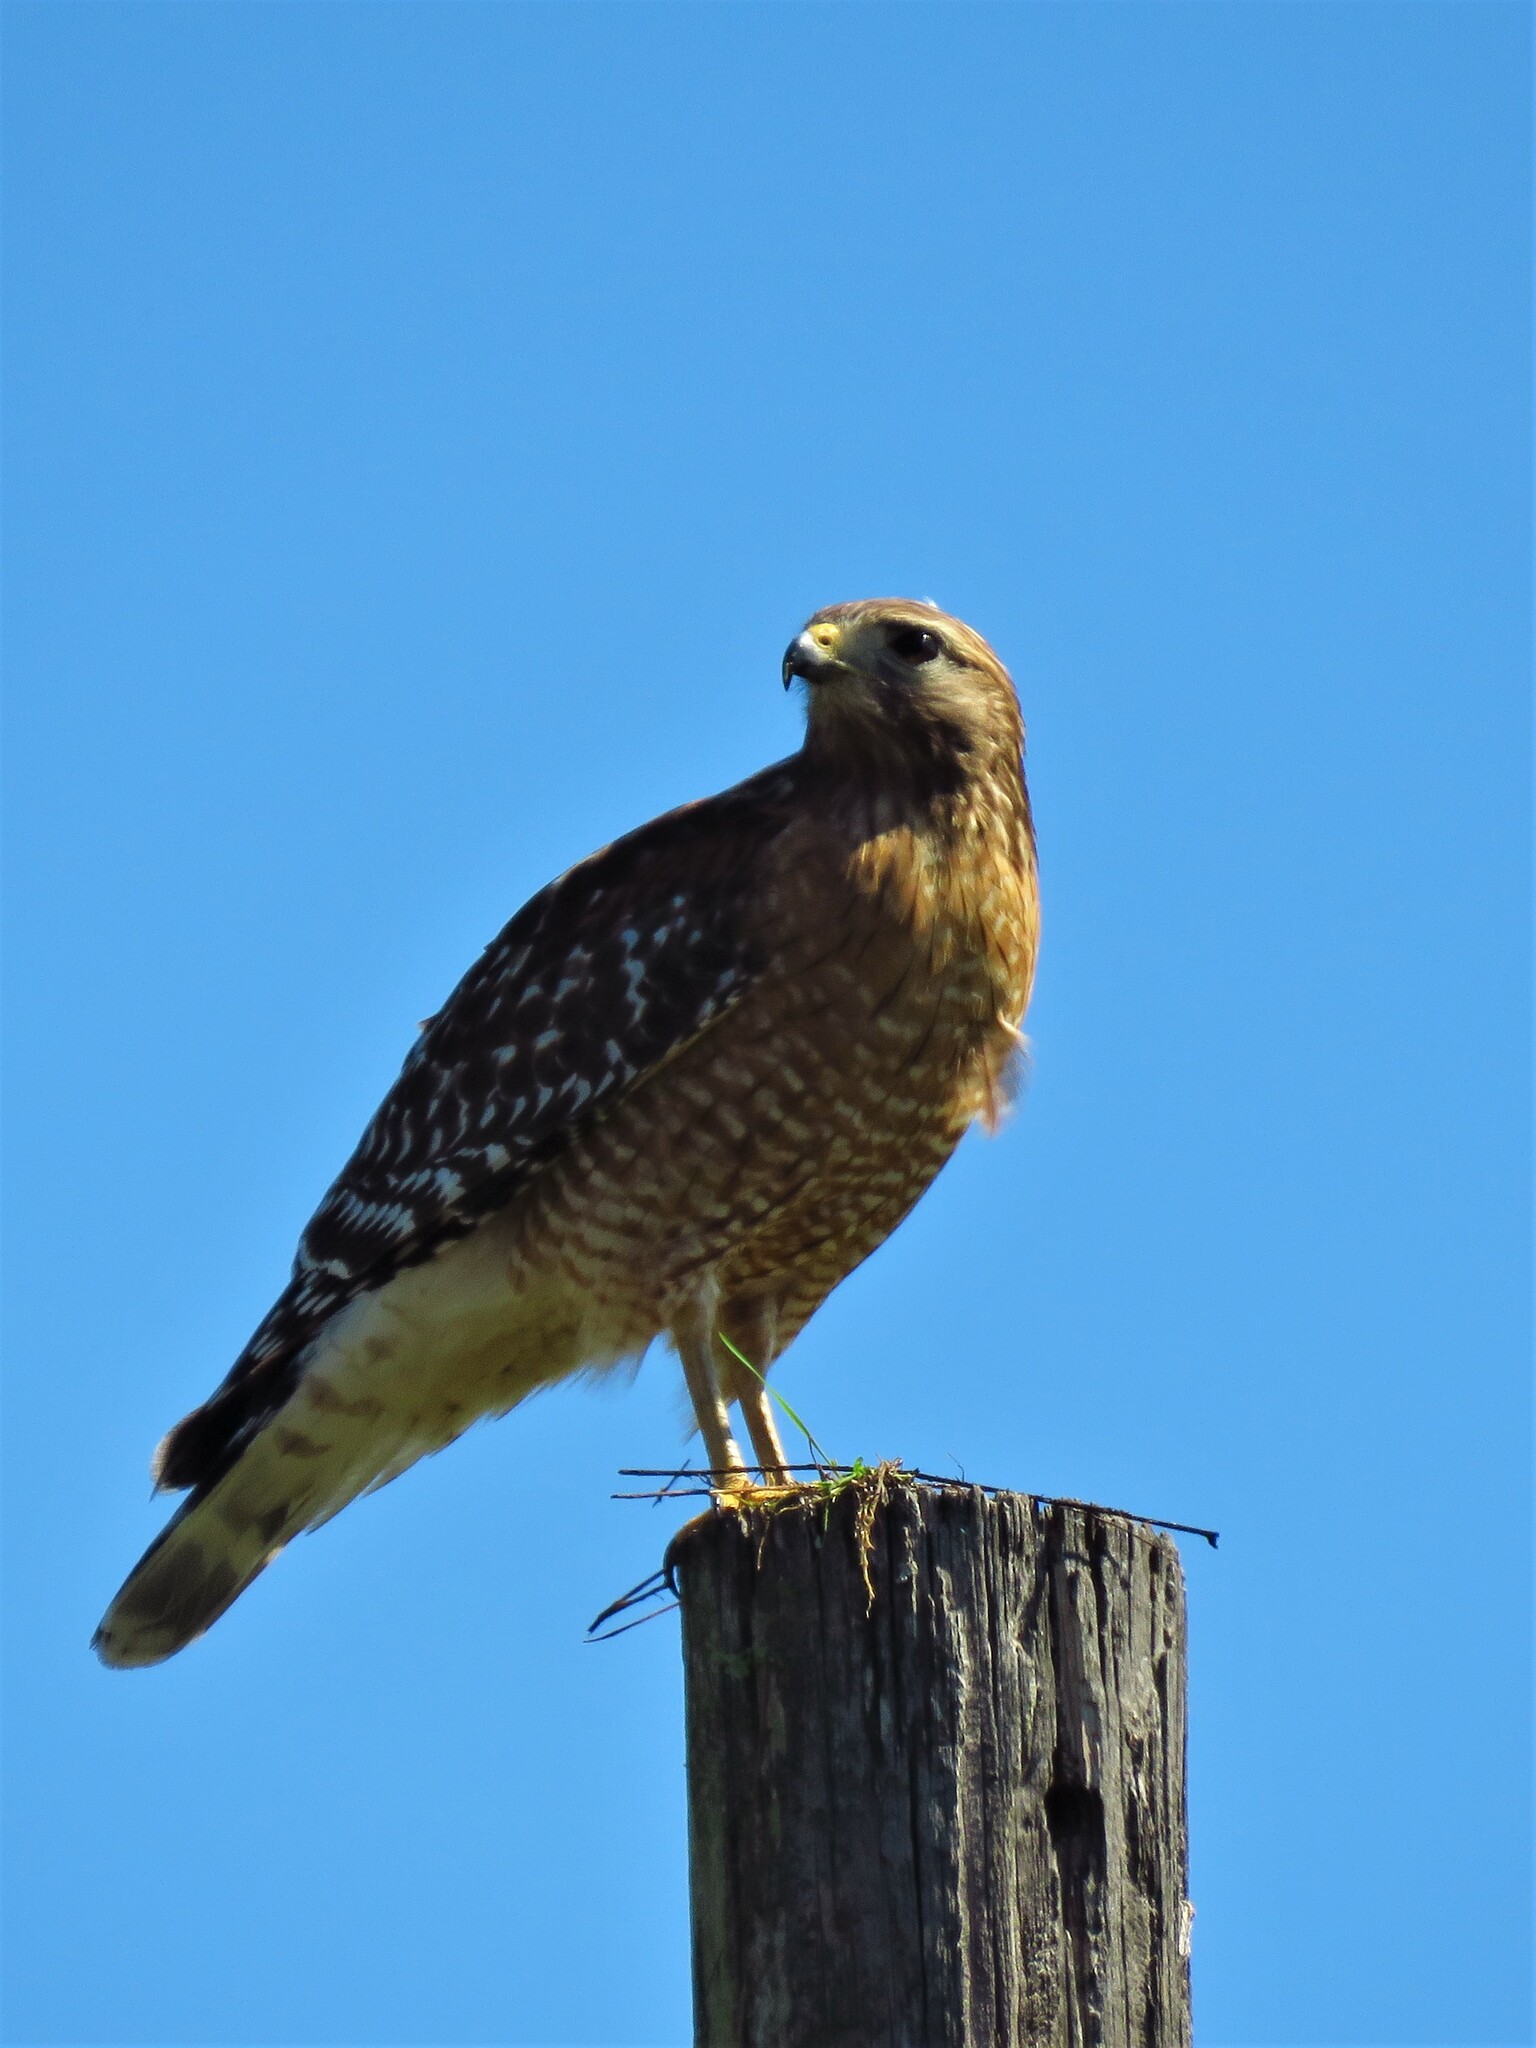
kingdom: Animalia
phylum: Chordata
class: Aves
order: Accipitriformes
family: Accipitridae
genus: Buteo
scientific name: Buteo lineatus
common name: Red-shouldered hawk
